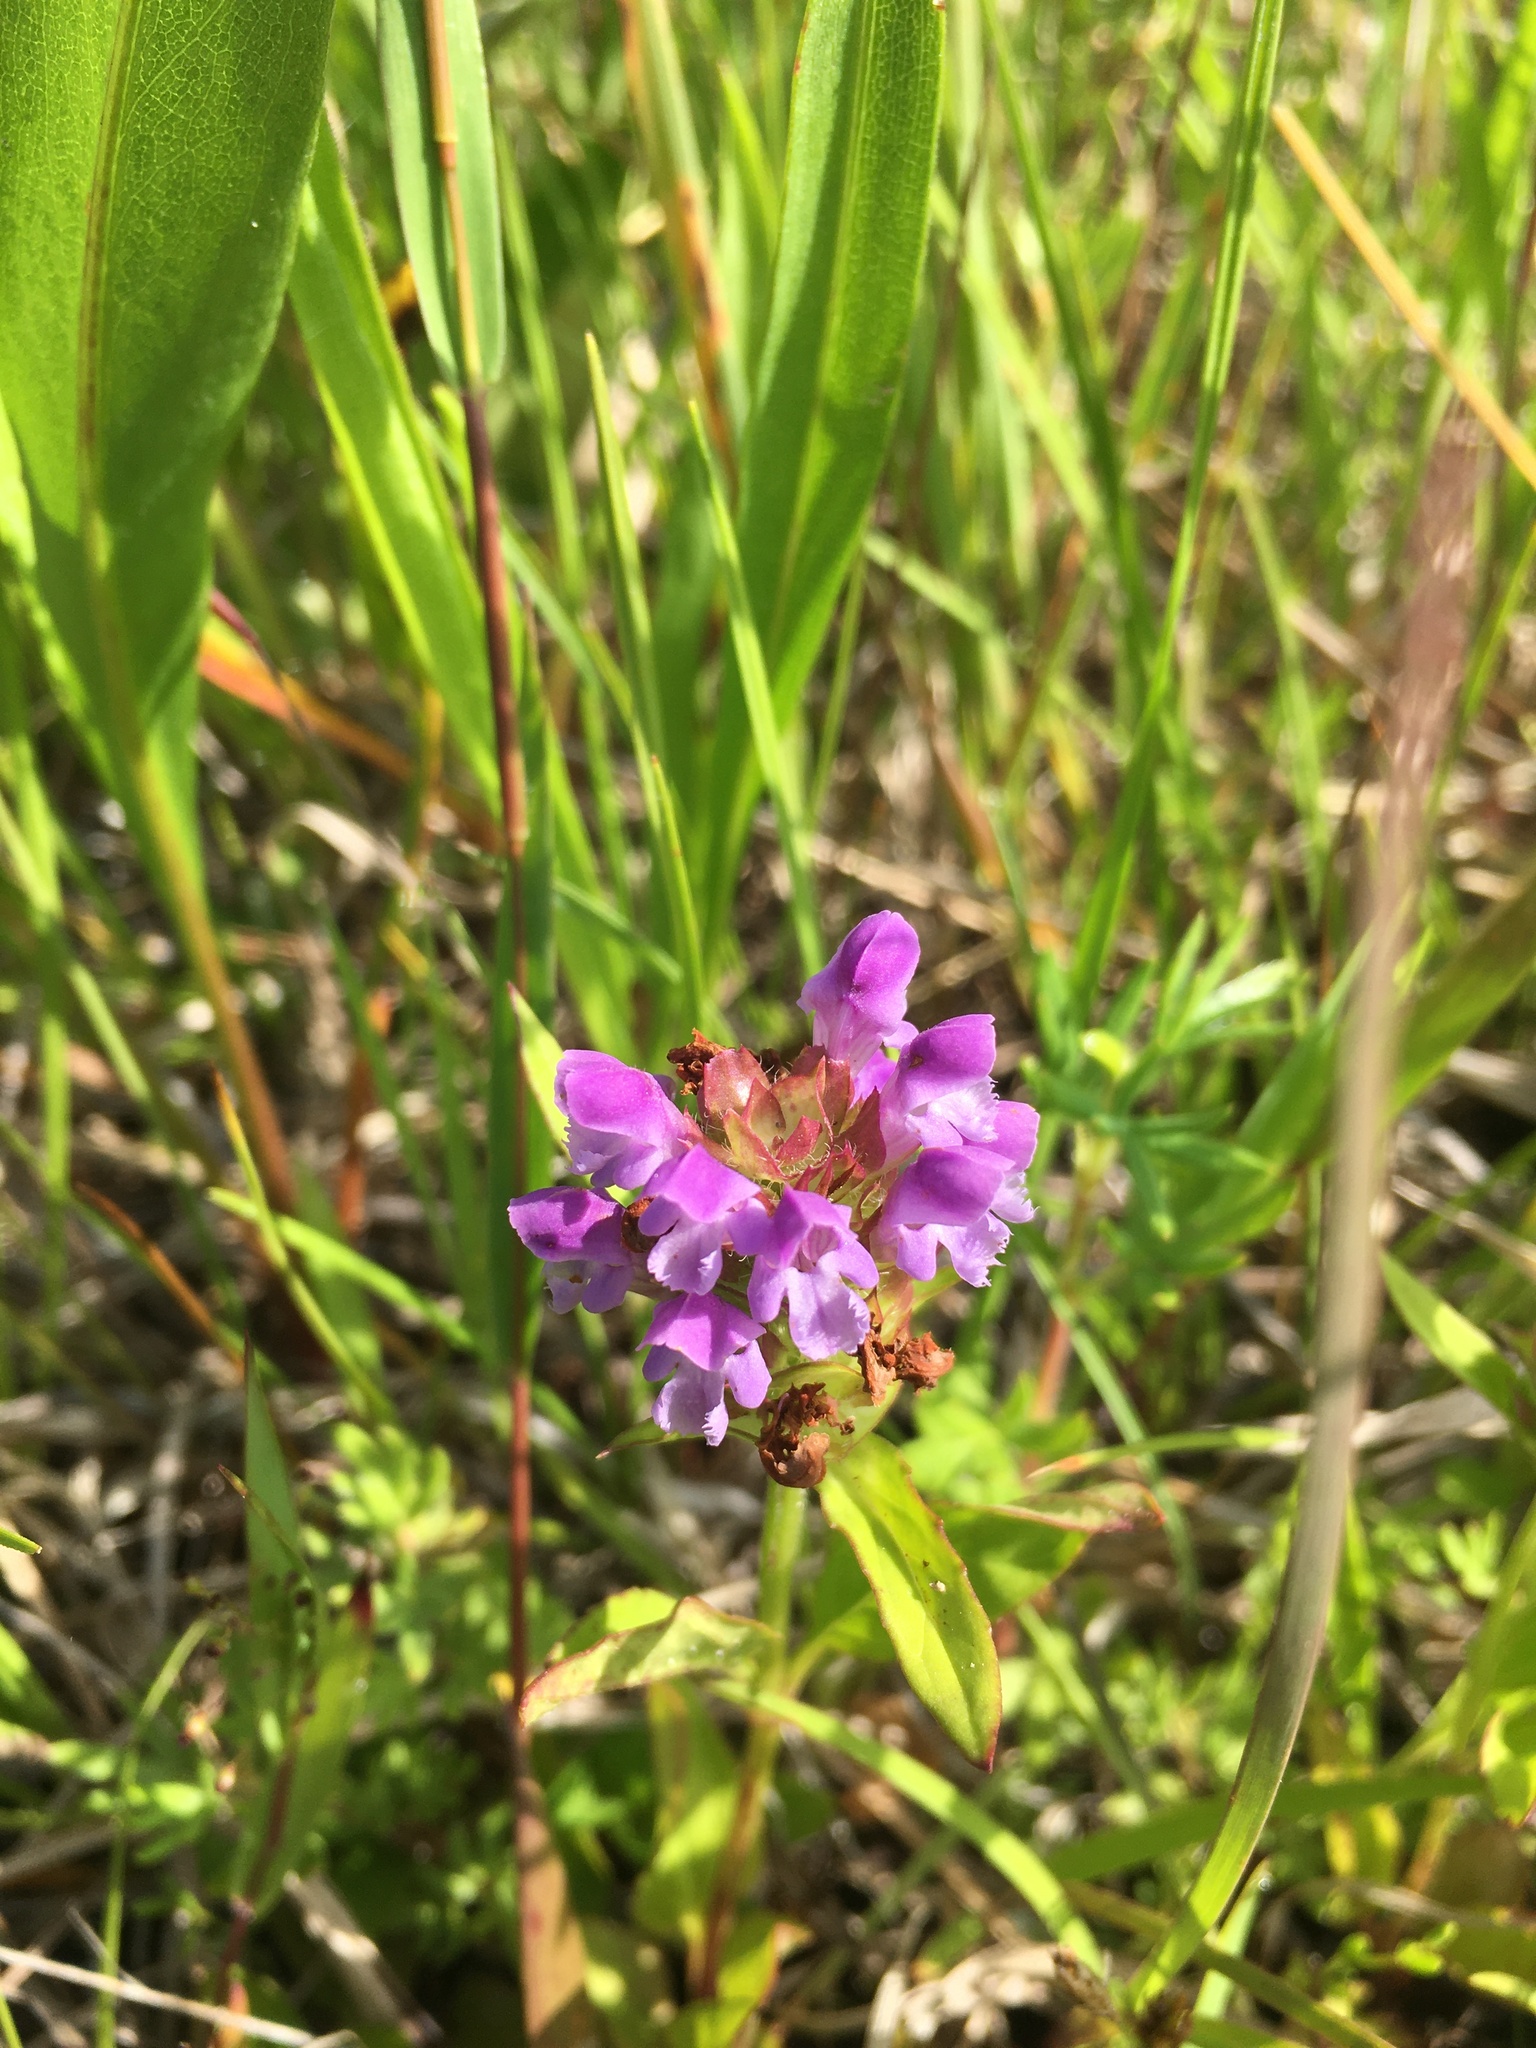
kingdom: Plantae
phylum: Tracheophyta
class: Magnoliopsida
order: Lamiales
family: Lamiaceae
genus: Prunella
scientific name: Prunella vulgaris
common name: Heal-all
